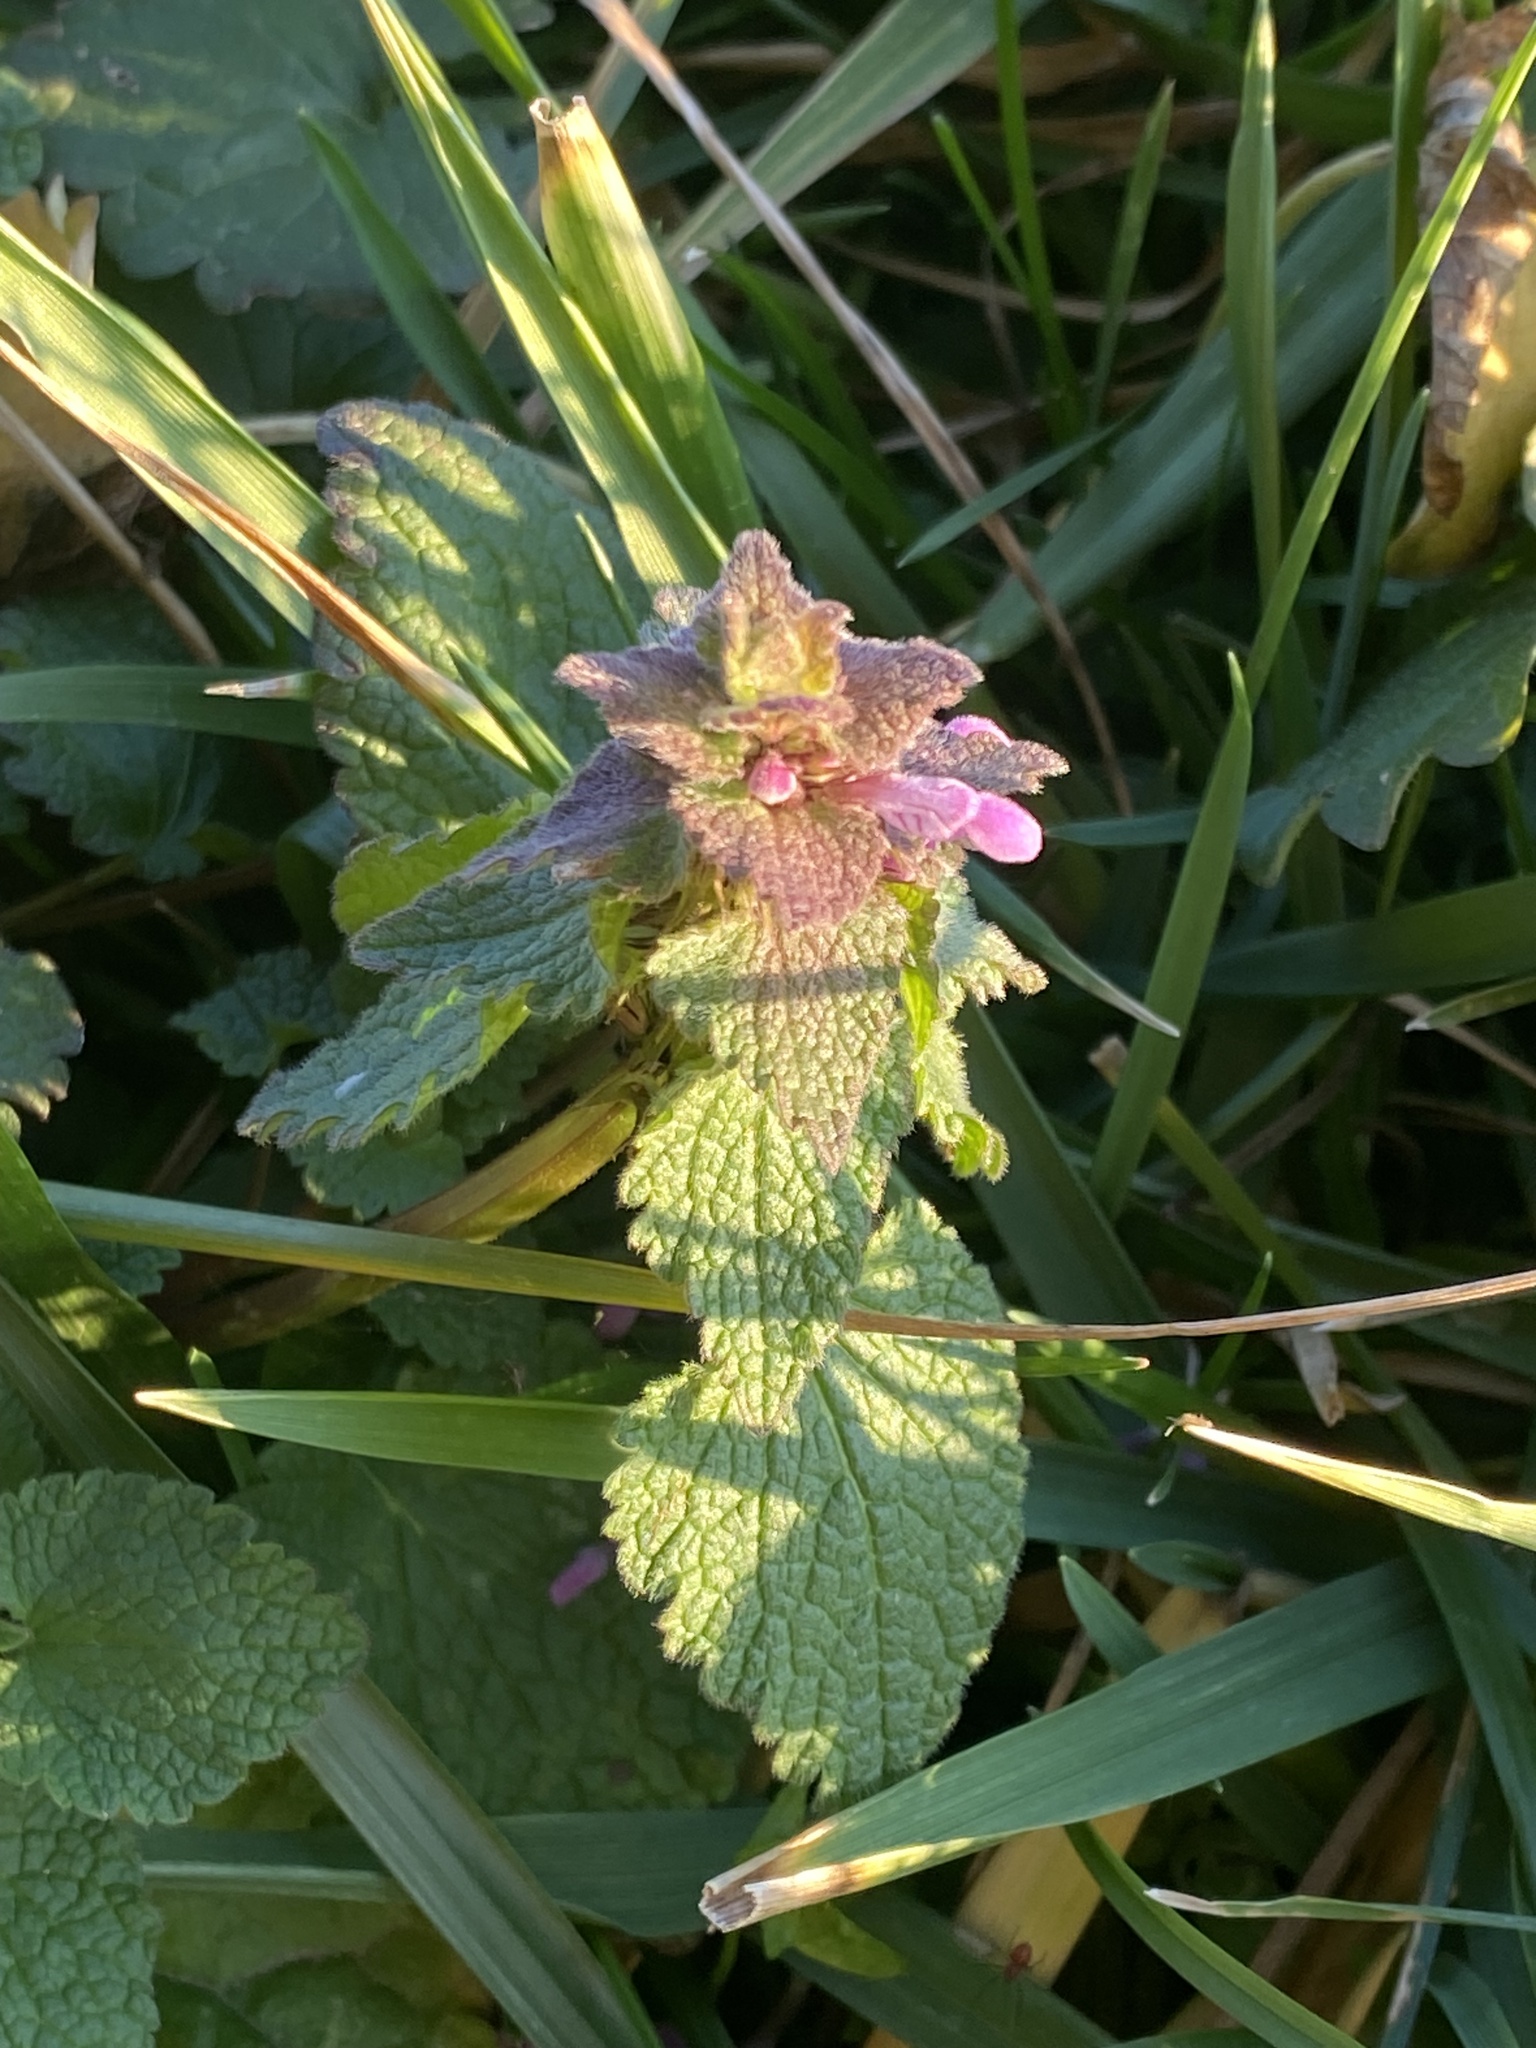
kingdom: Plantae
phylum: Tracheophyta
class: Magnoliopsida
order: Lamiales
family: Lamiaceae
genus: Lamium
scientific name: Lamium purpureum
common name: Red dead-nettle
